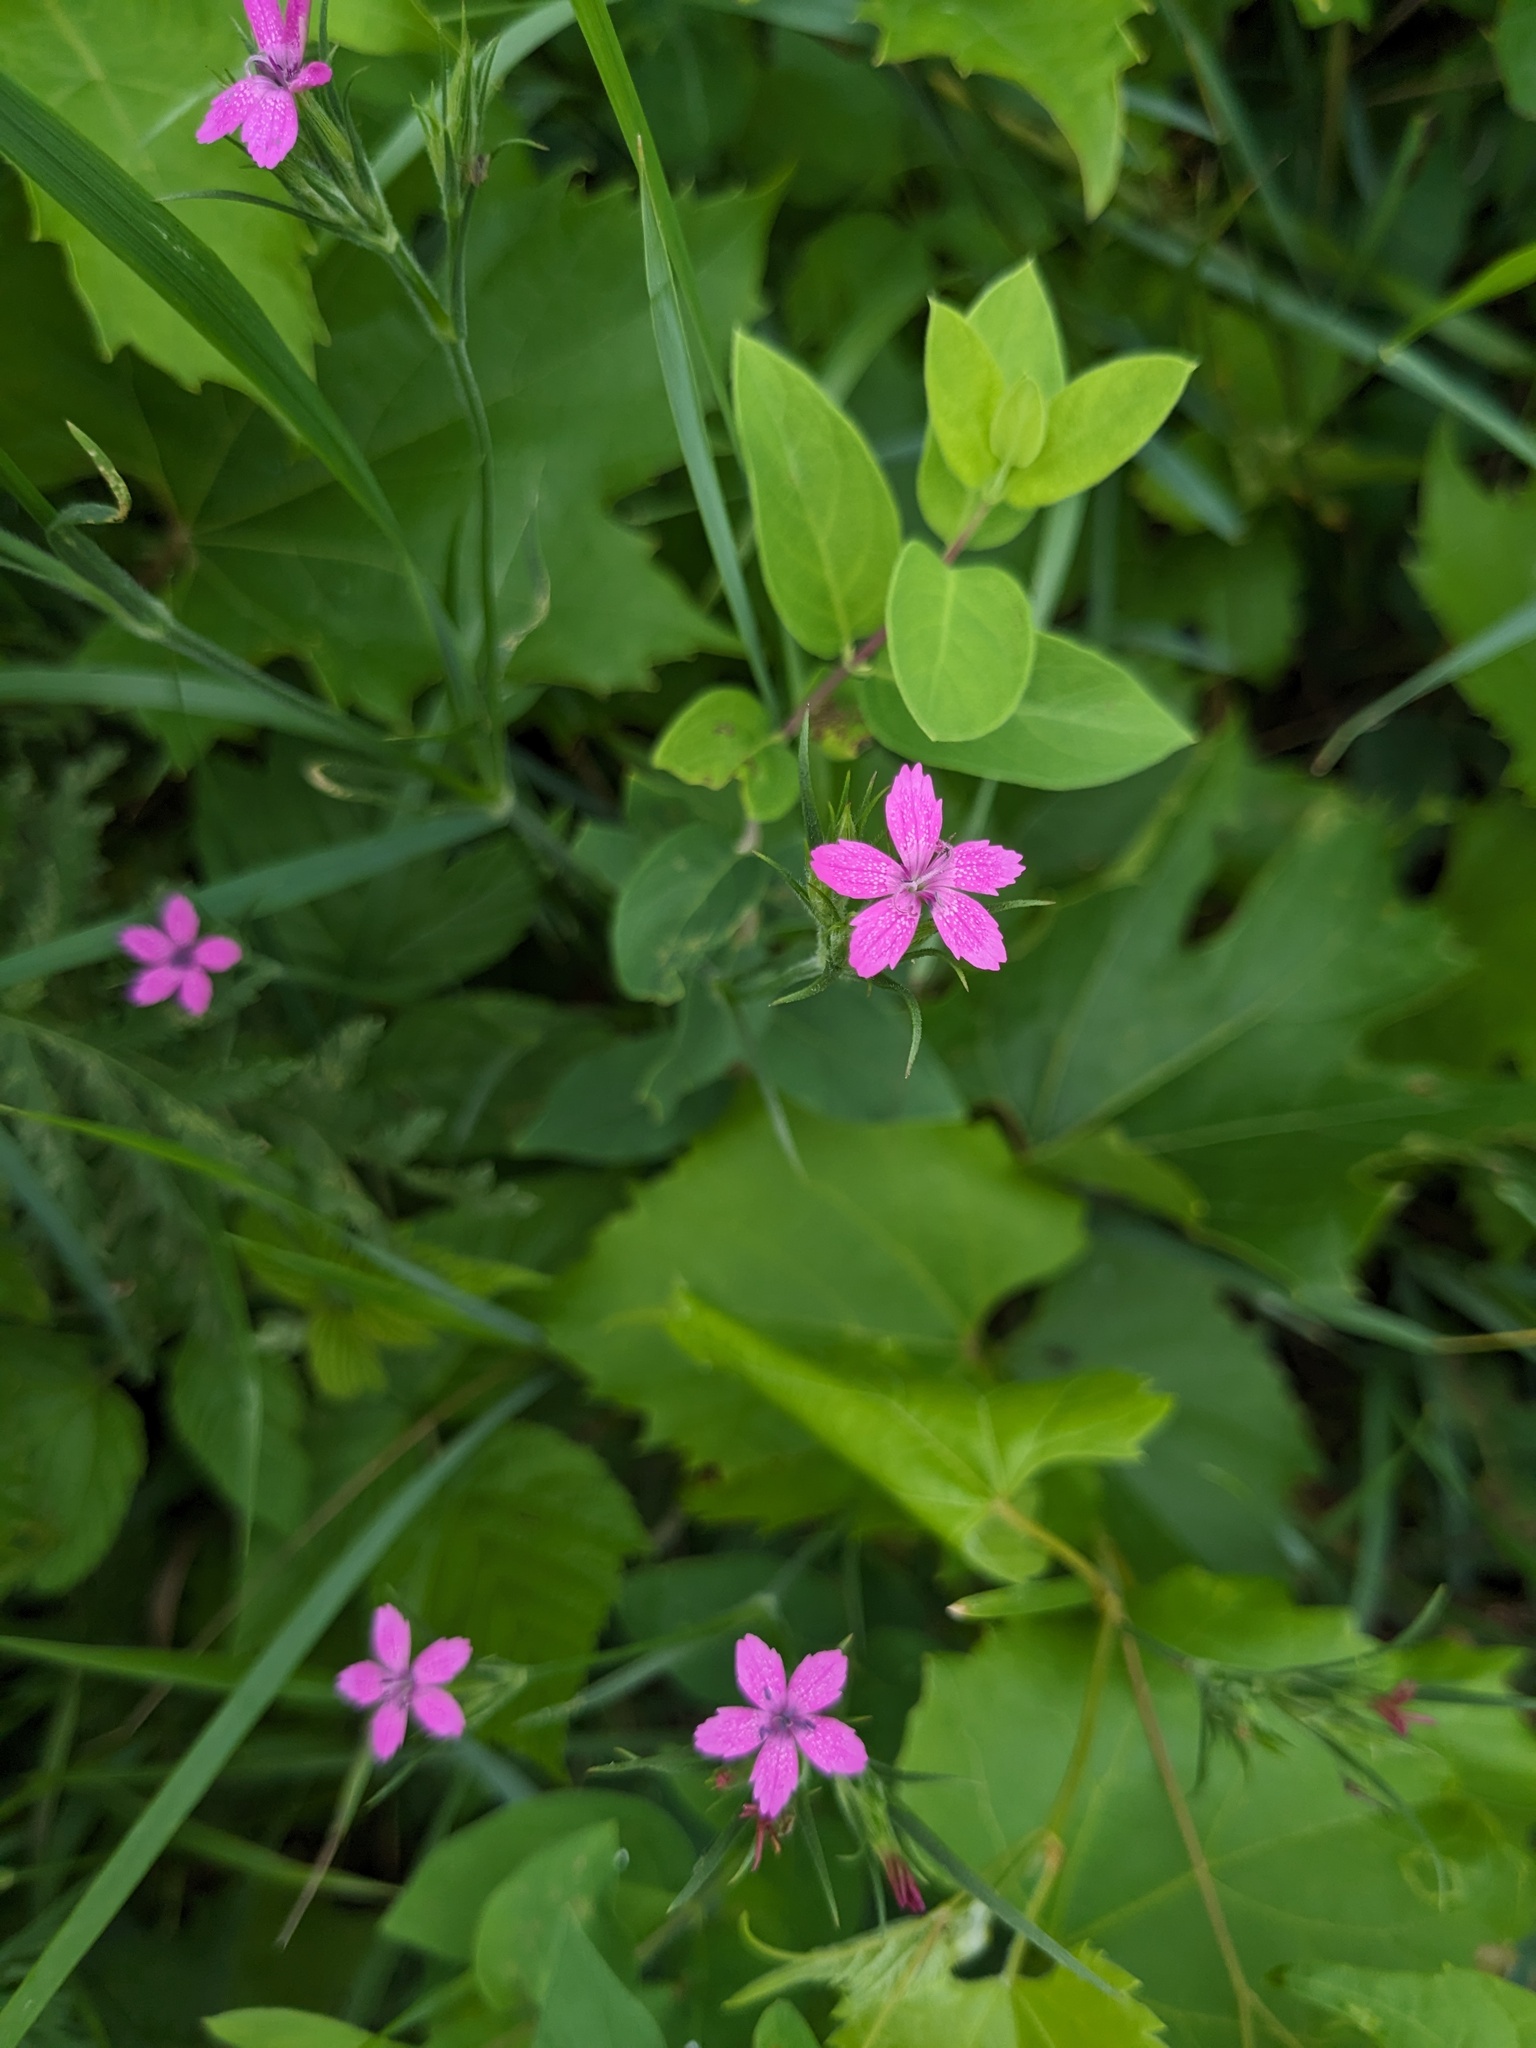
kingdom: Plantae
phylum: Tracheophyta
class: Magnoliopsida
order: Caryophyllales
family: Caryophyllaceae
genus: Dianthus
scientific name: Dianthus armeria
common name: Deptford pink
